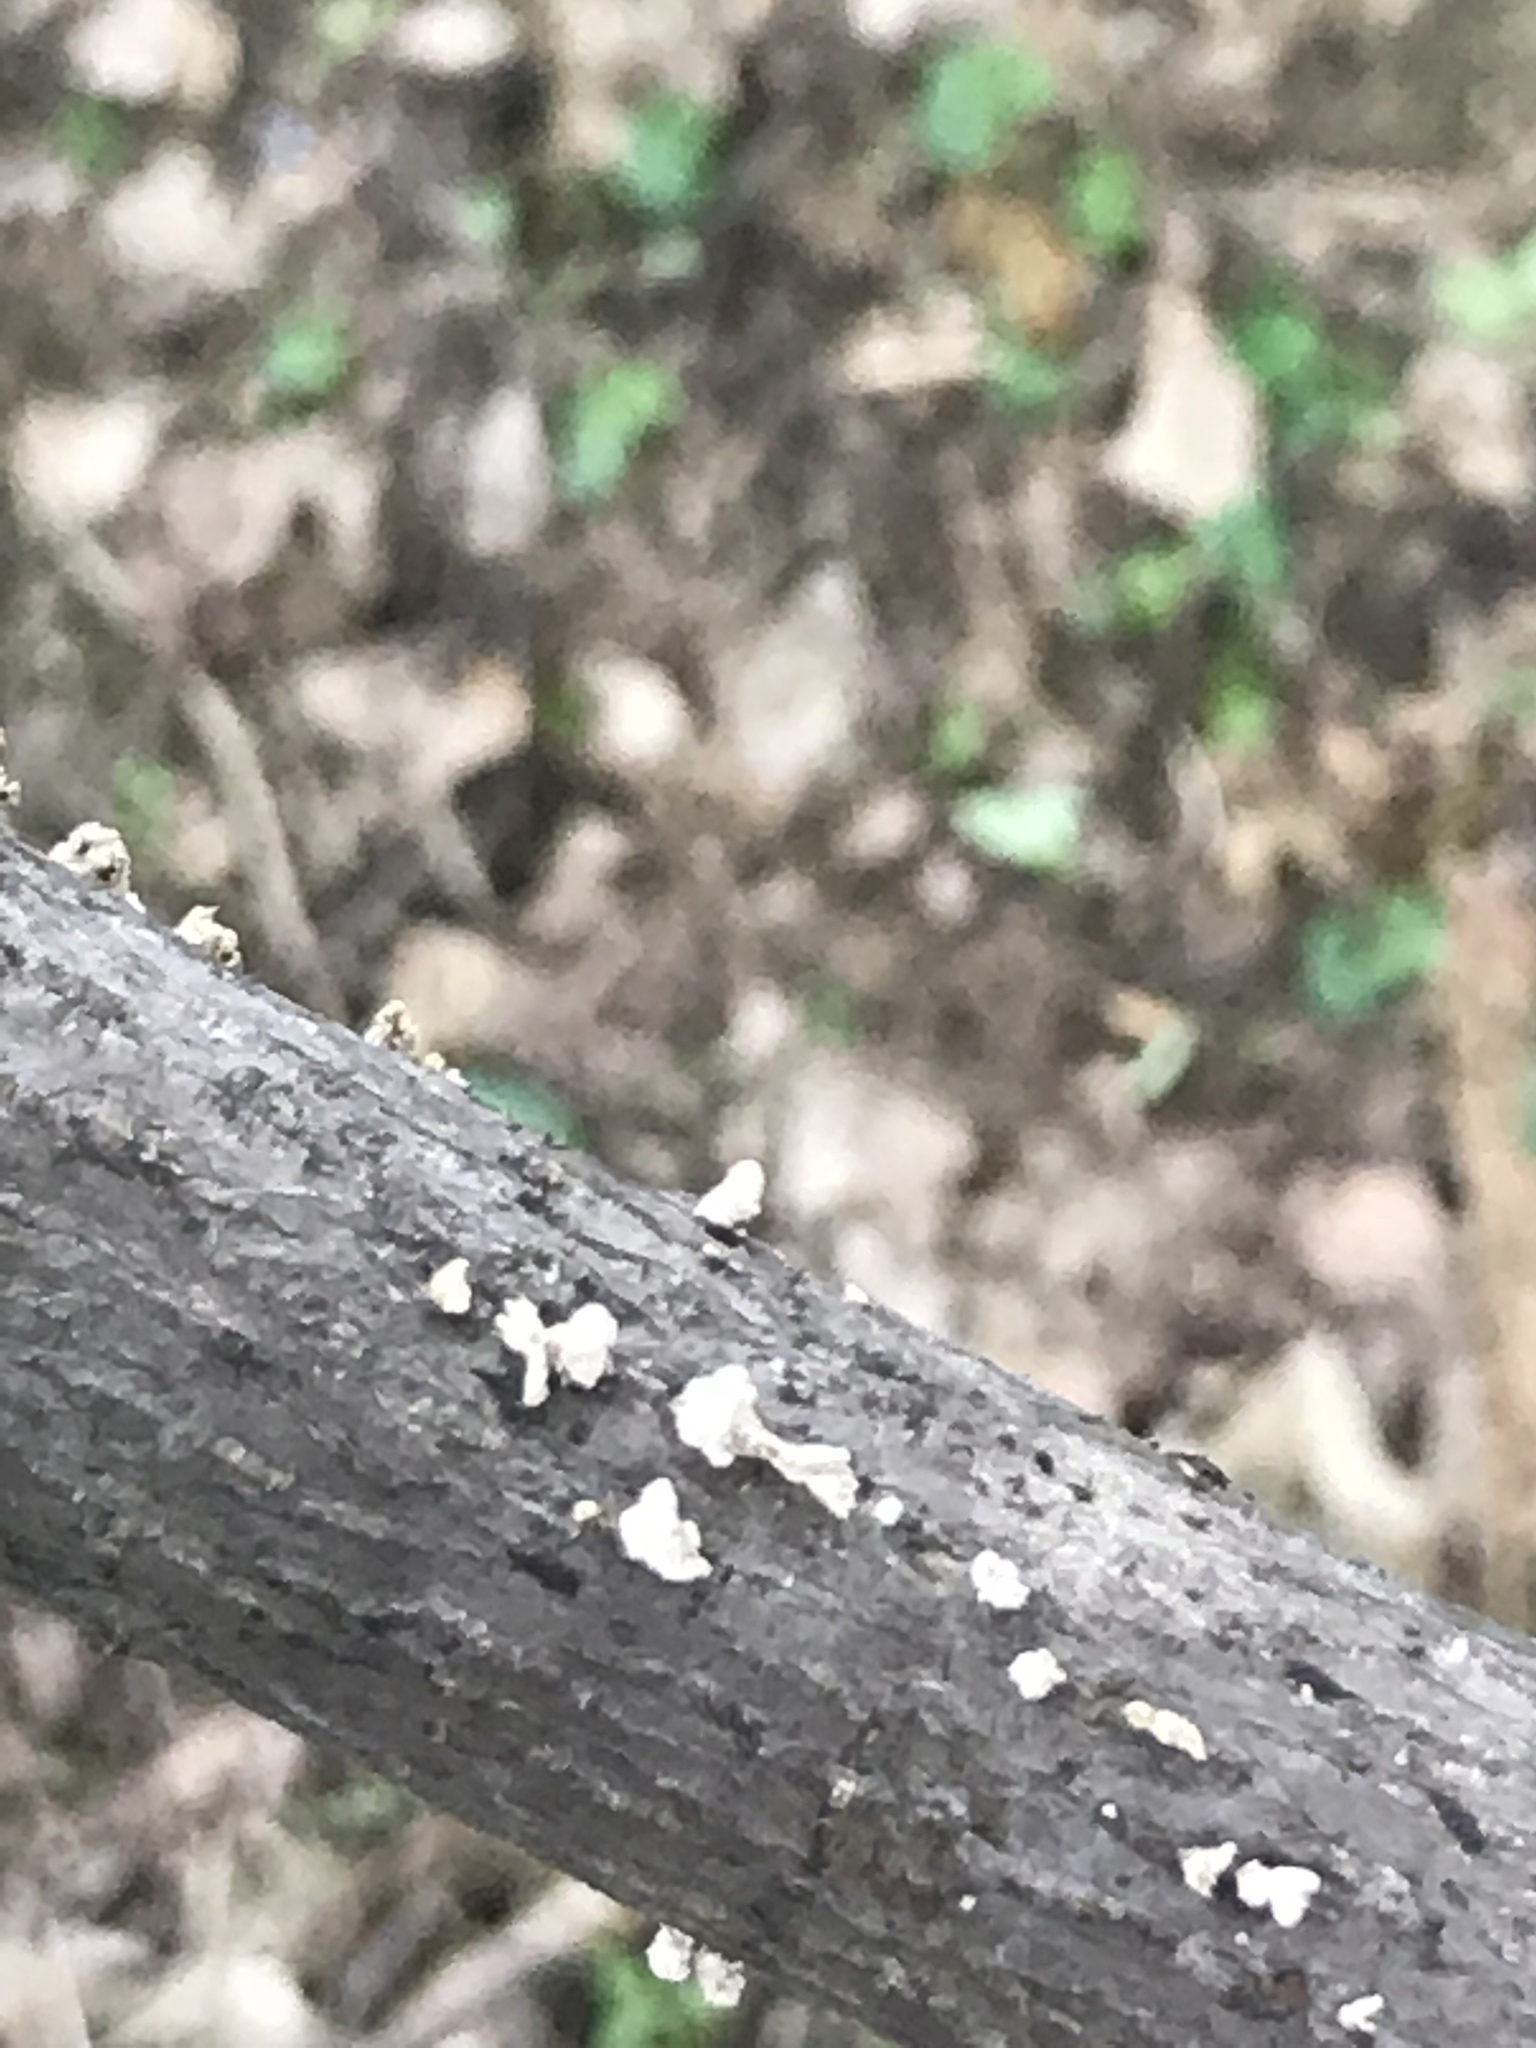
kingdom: Fungi
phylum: Basidiomycota
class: Agaricomycetes
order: Agaricales
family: Schizophyllaceae
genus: Schizophyllum
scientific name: Schizophyllum commune
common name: Common porecrust
